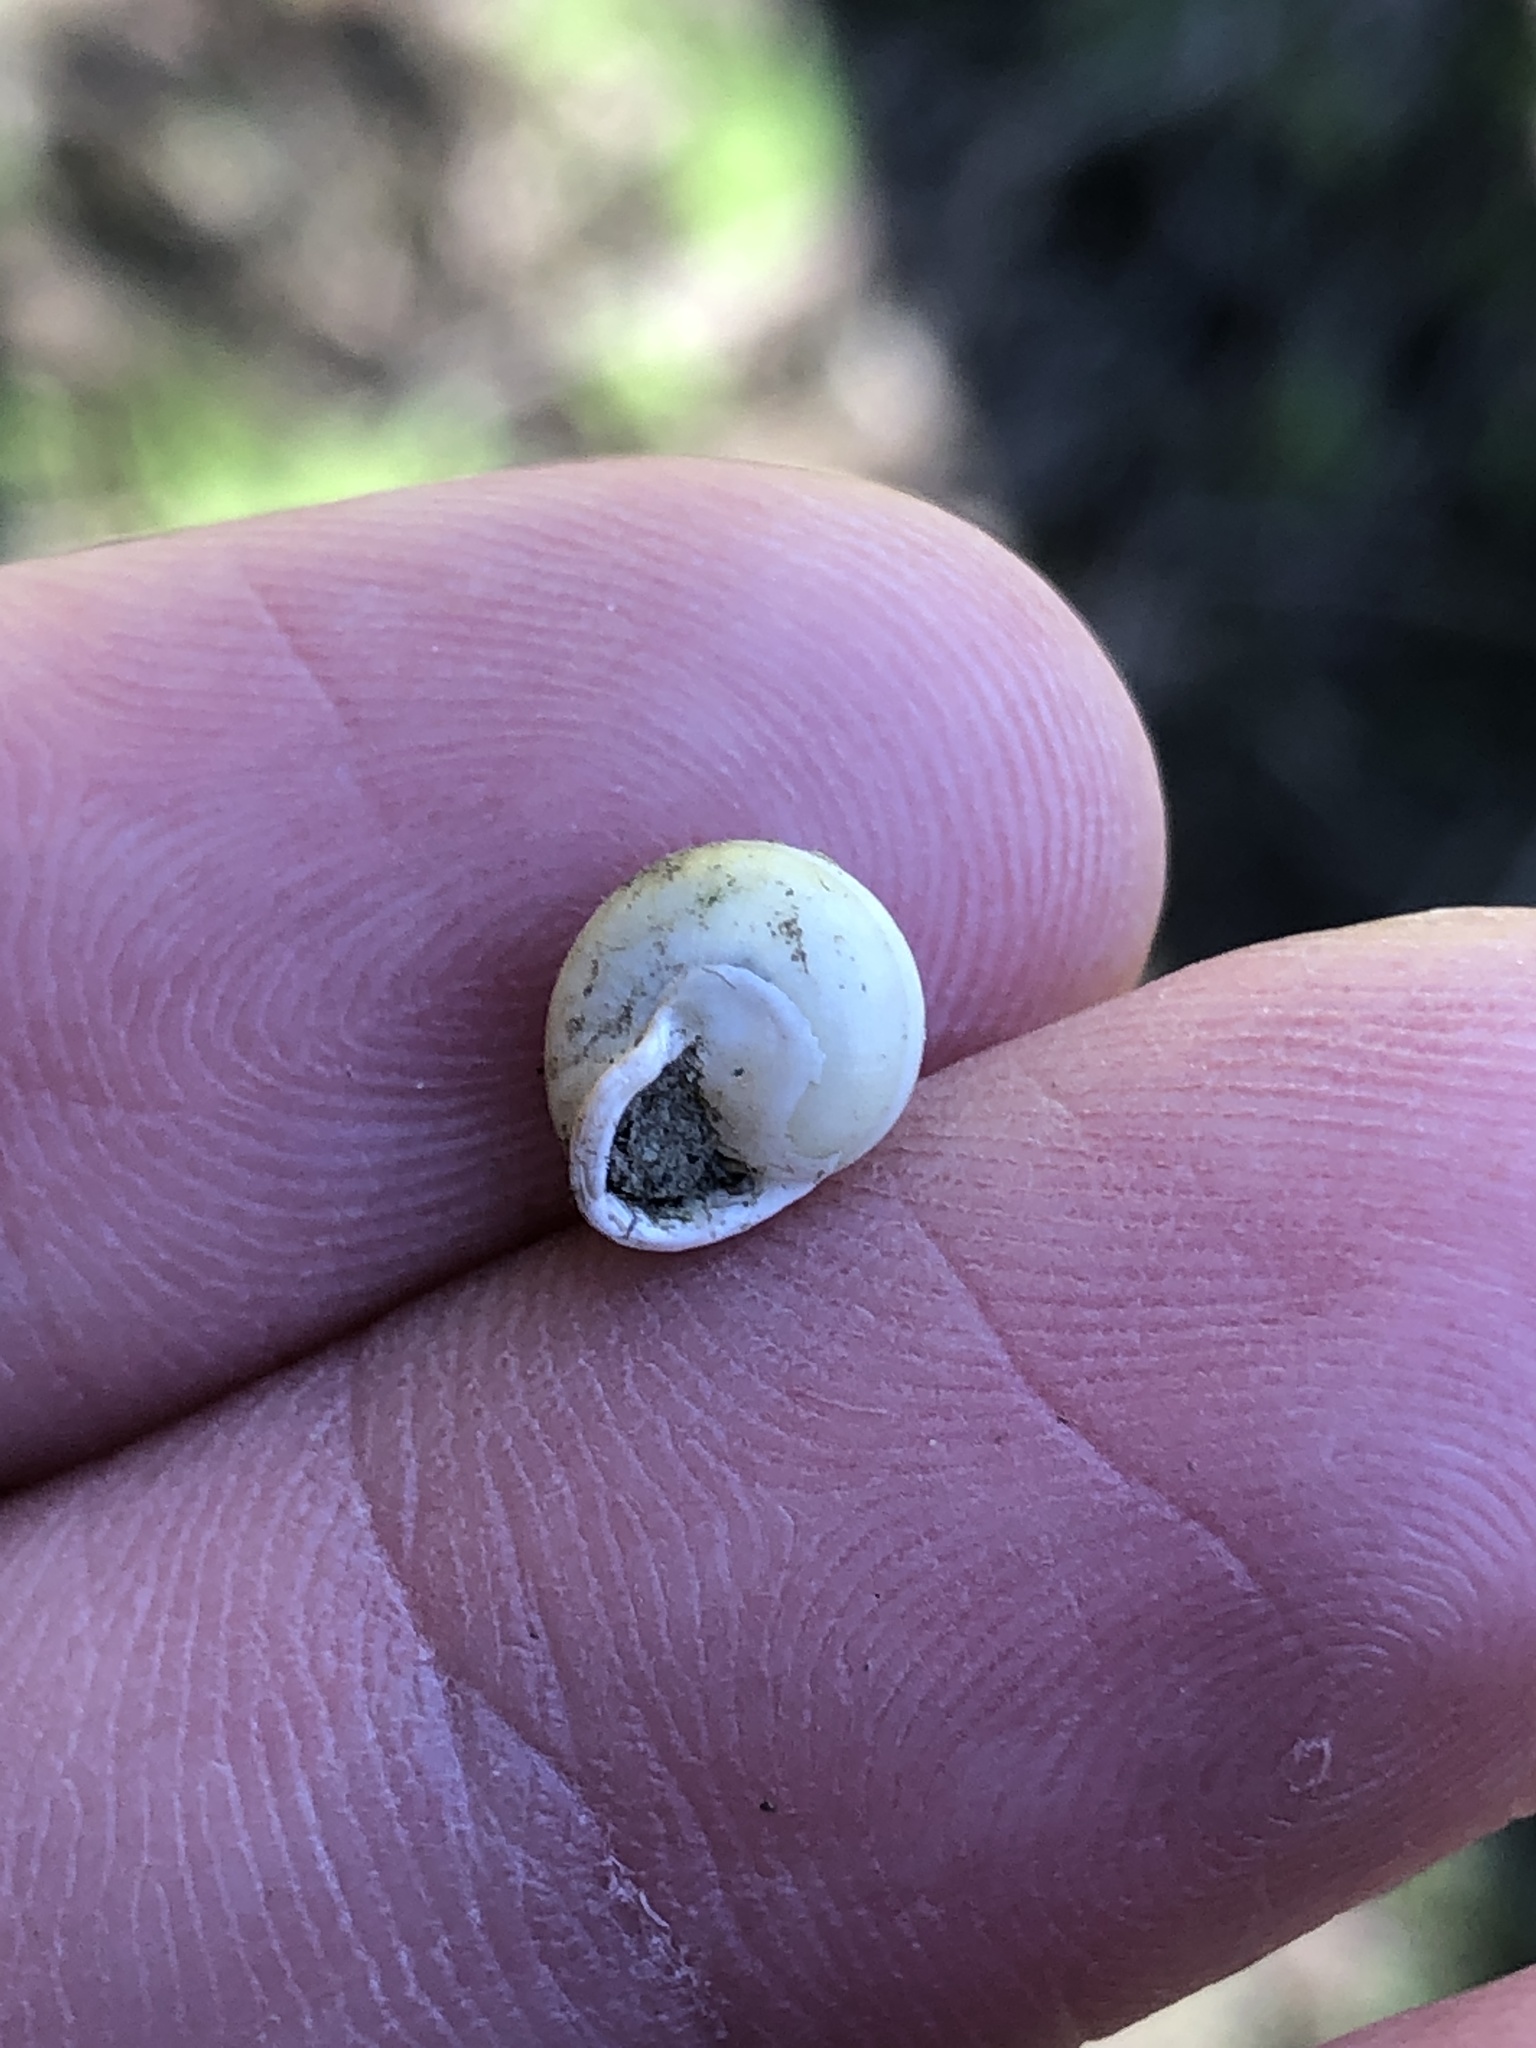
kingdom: Animalia
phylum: Mollusca
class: Gastropoda
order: Cycloneritida
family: Helicinidae
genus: Helicina
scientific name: Helicina orbiculata
